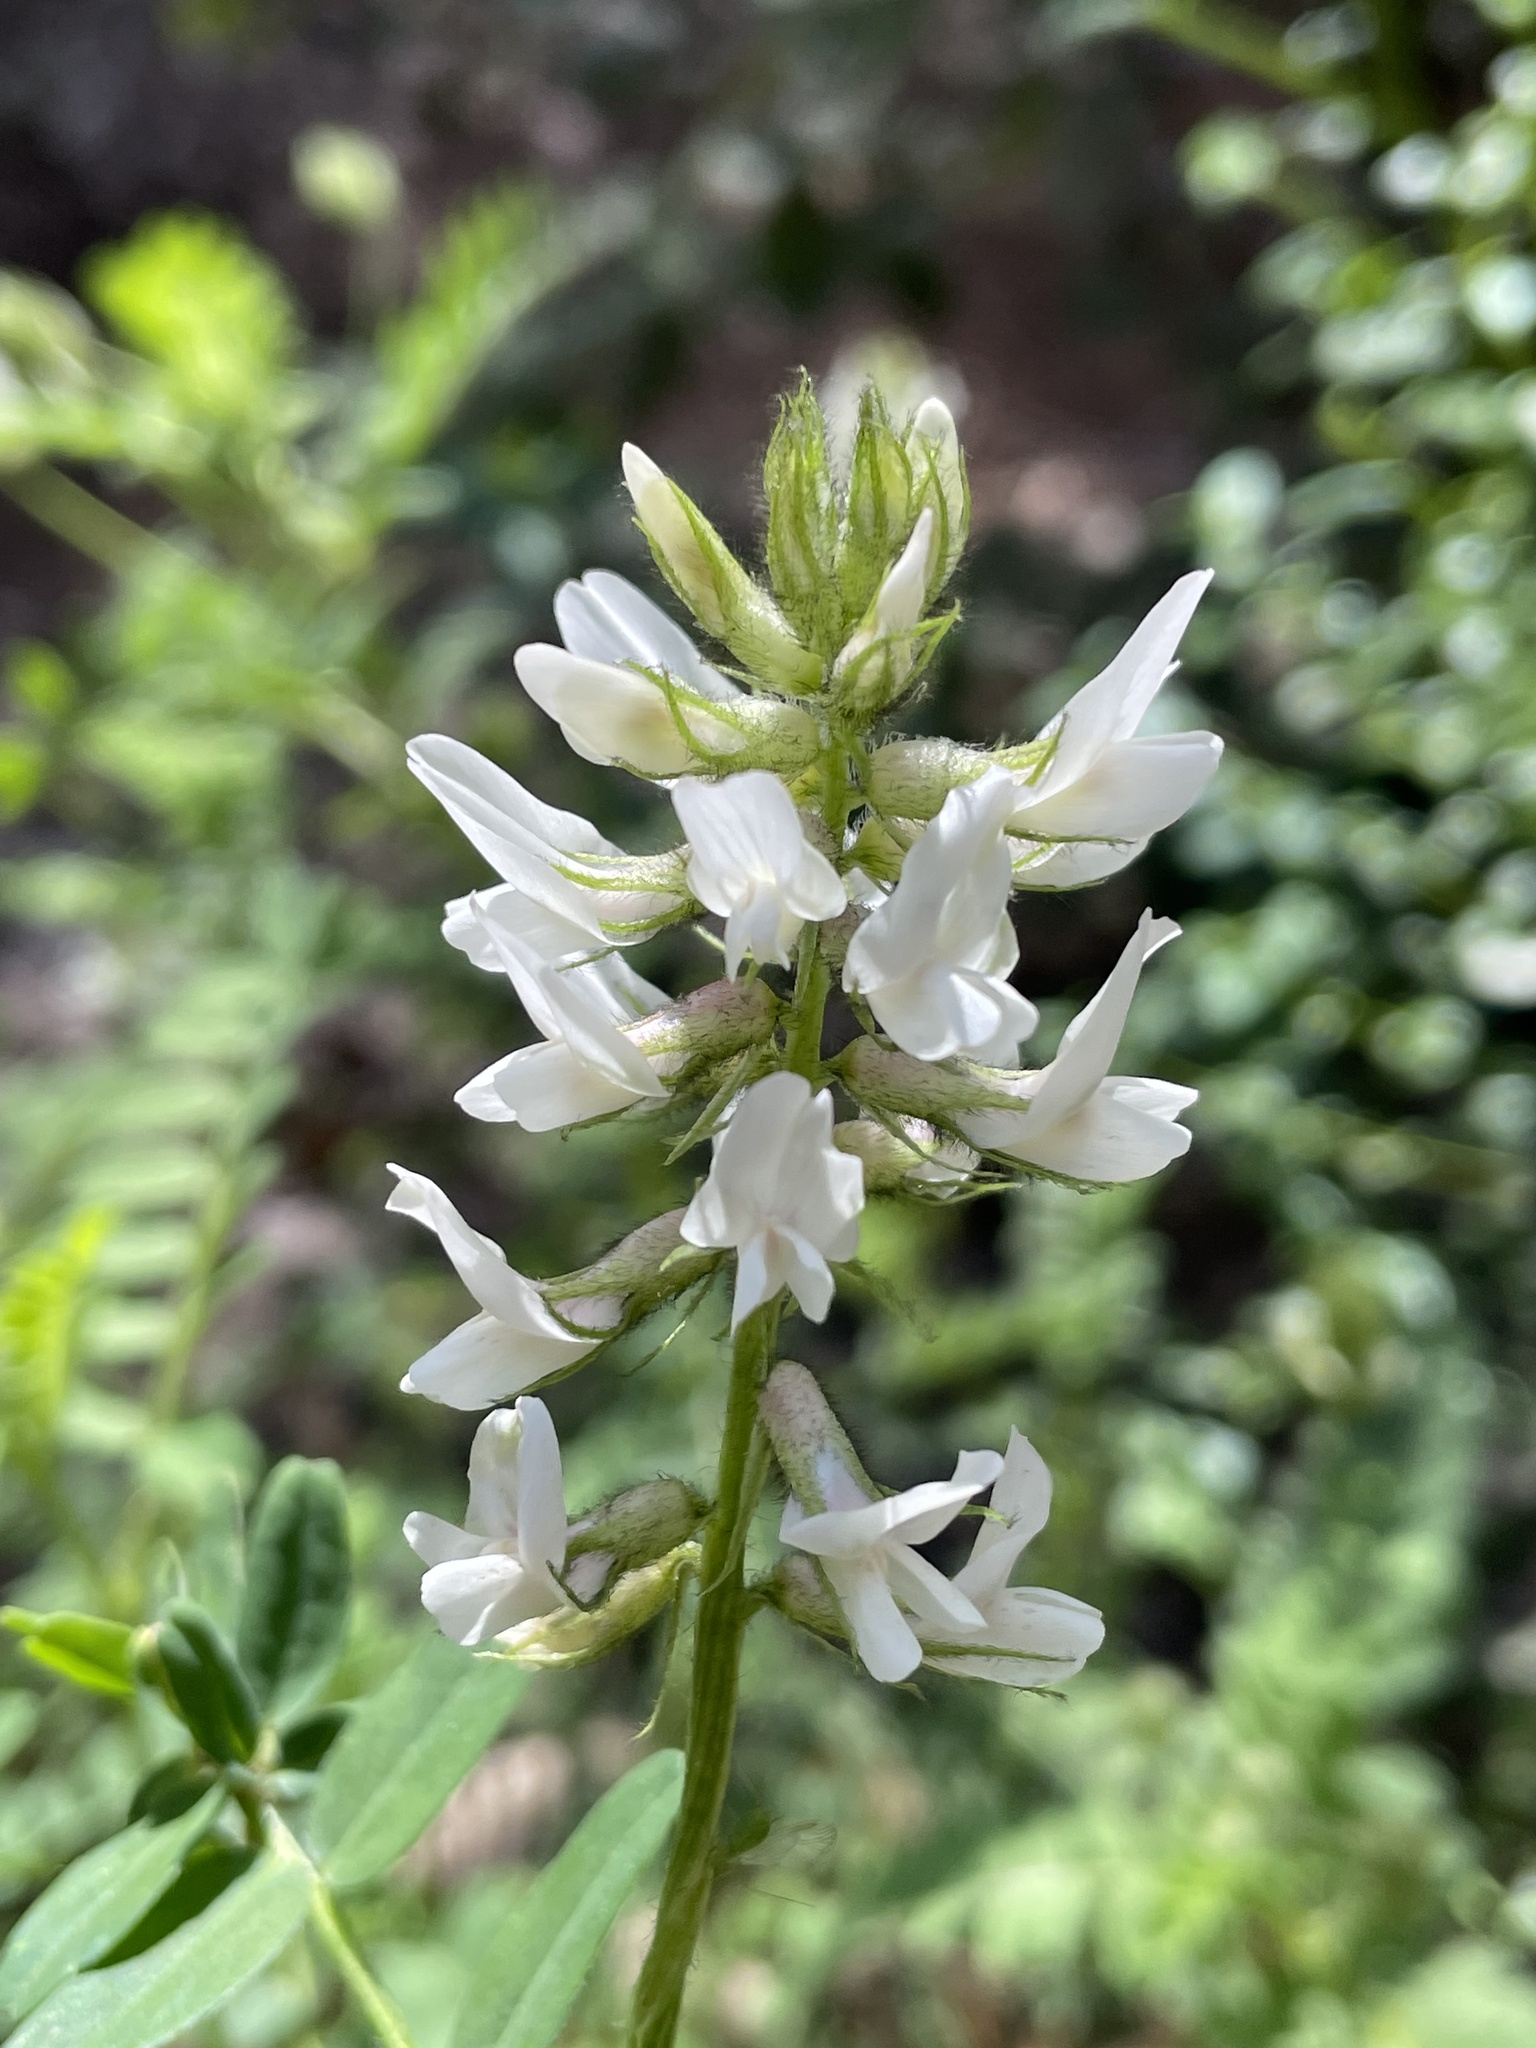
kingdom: Plantae
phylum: Tracheophyta
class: Magnoliopsida
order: Fabales
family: Fabaceae
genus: Astragalus
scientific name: Astragalus agnicidus
